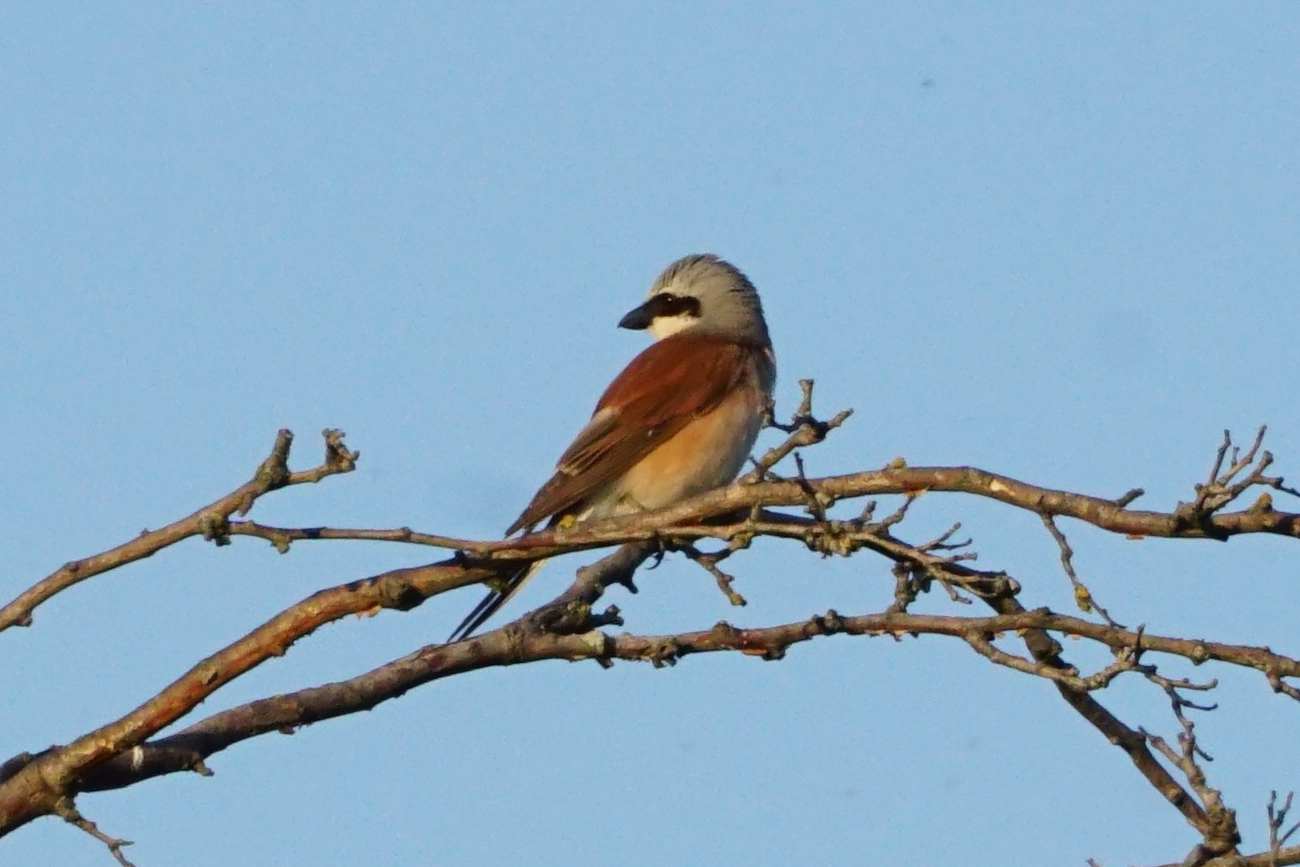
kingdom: Animalia
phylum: Chordata
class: Aves
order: Passeriformes
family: Laniidae
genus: Lanius
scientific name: Lanius collurio
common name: Red-backed shrike
